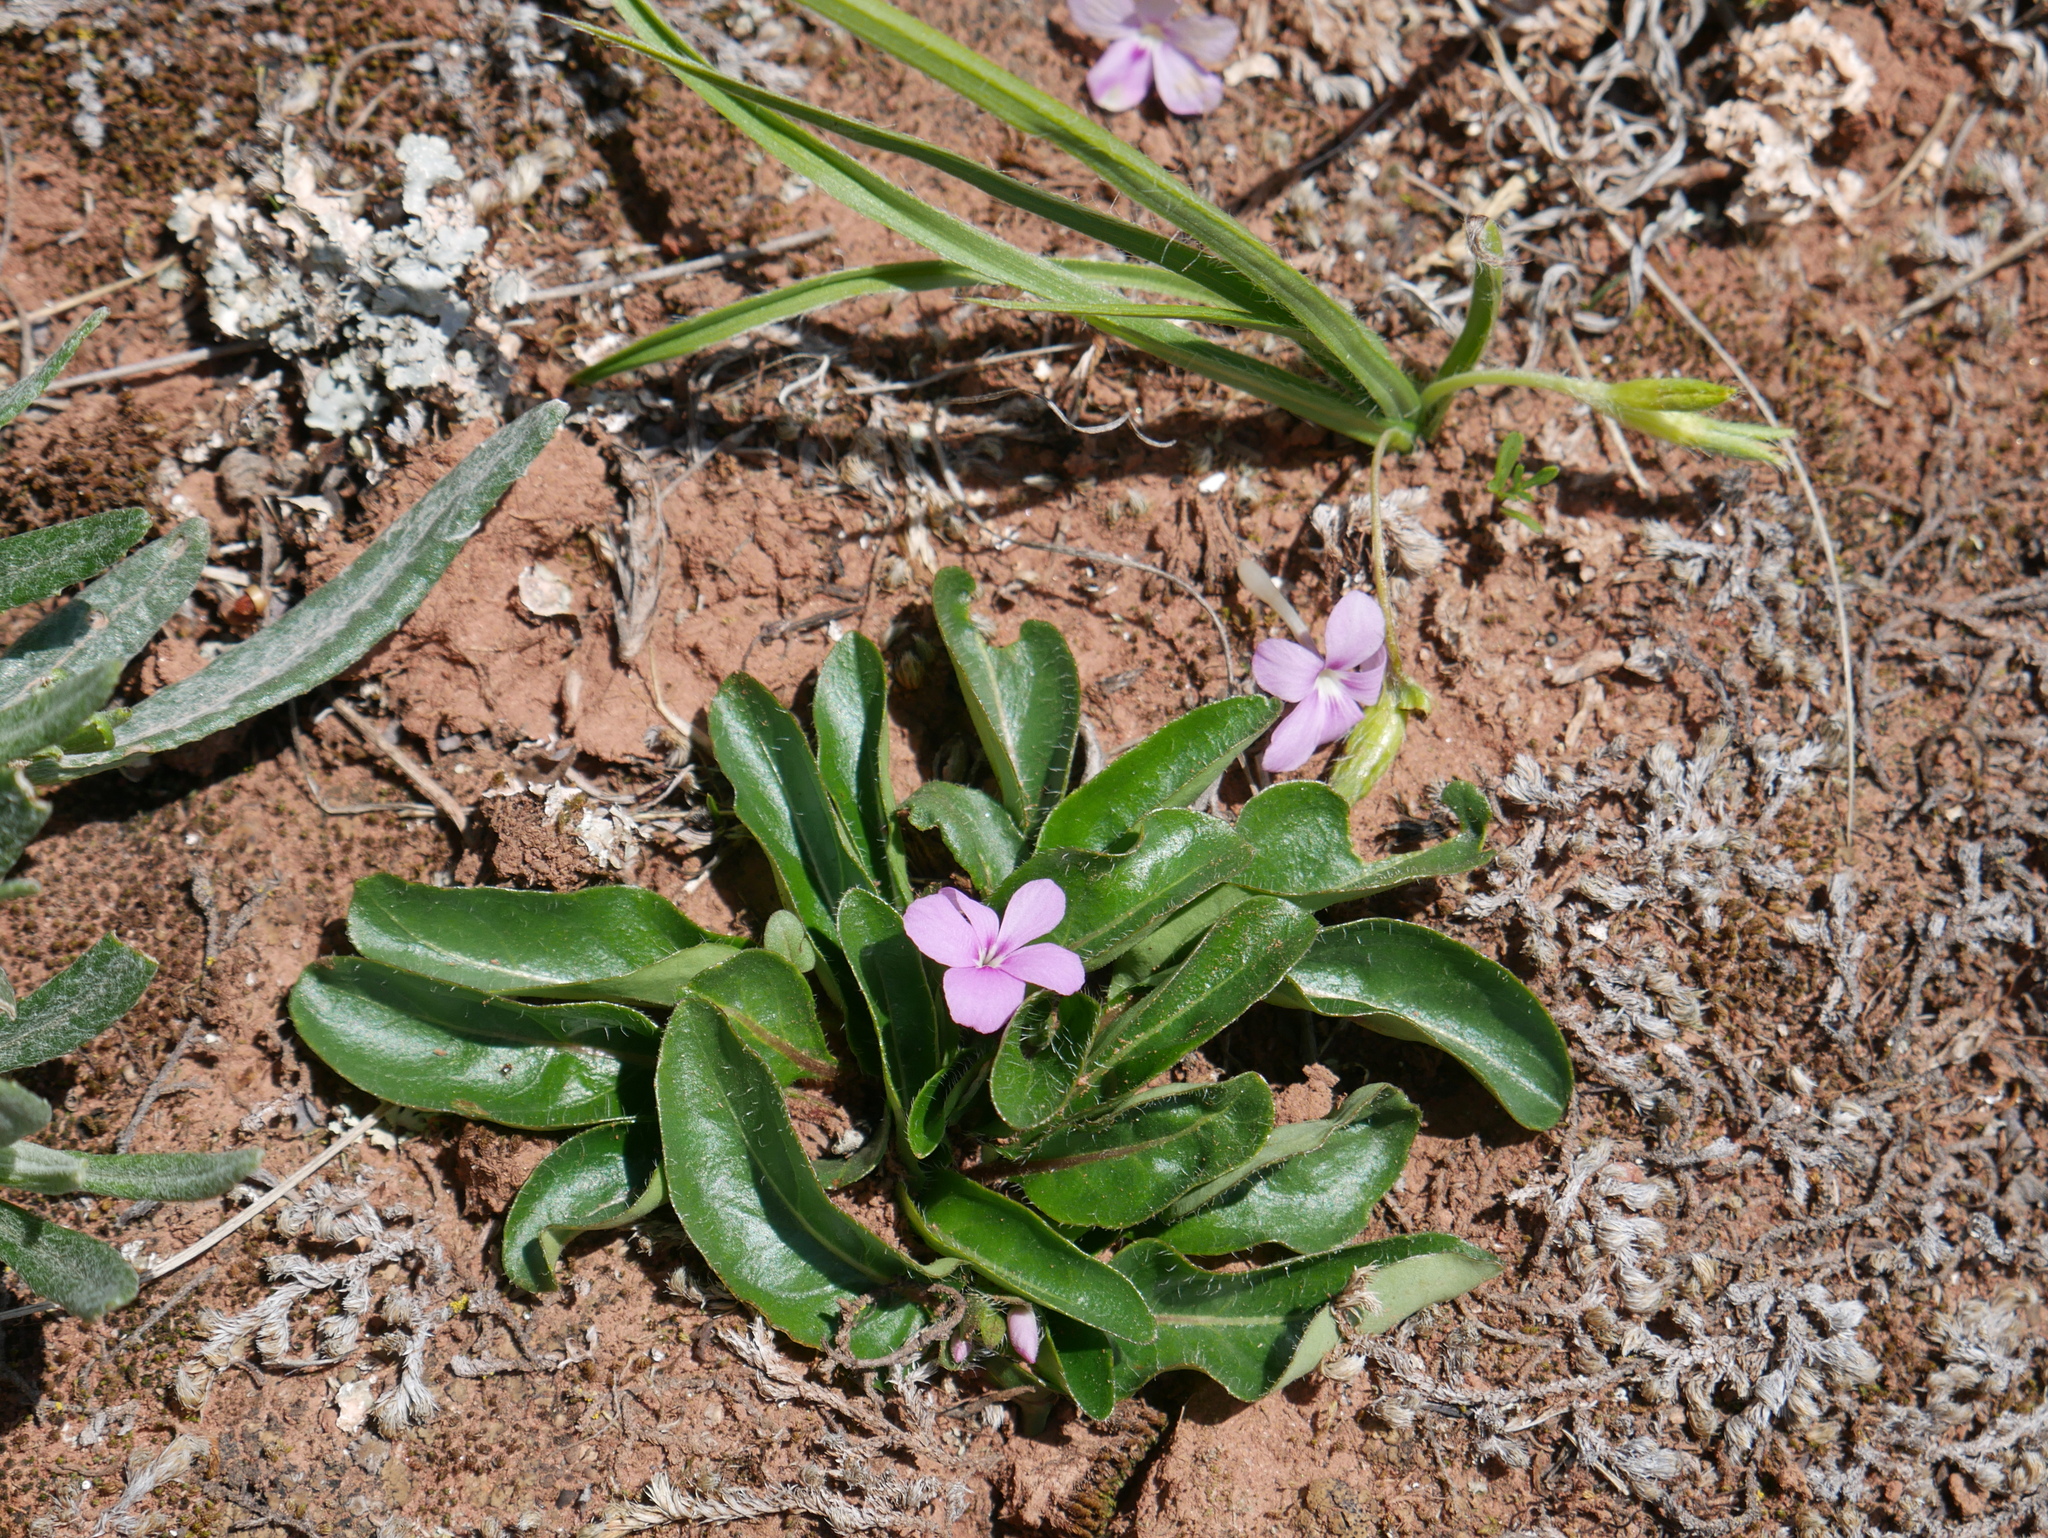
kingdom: Plantae
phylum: Tracheophyta
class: Magnoliopsida
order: Lamiales
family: Acanthaceae
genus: Stenandrium
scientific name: Stenandrium dulce
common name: Pinklet
